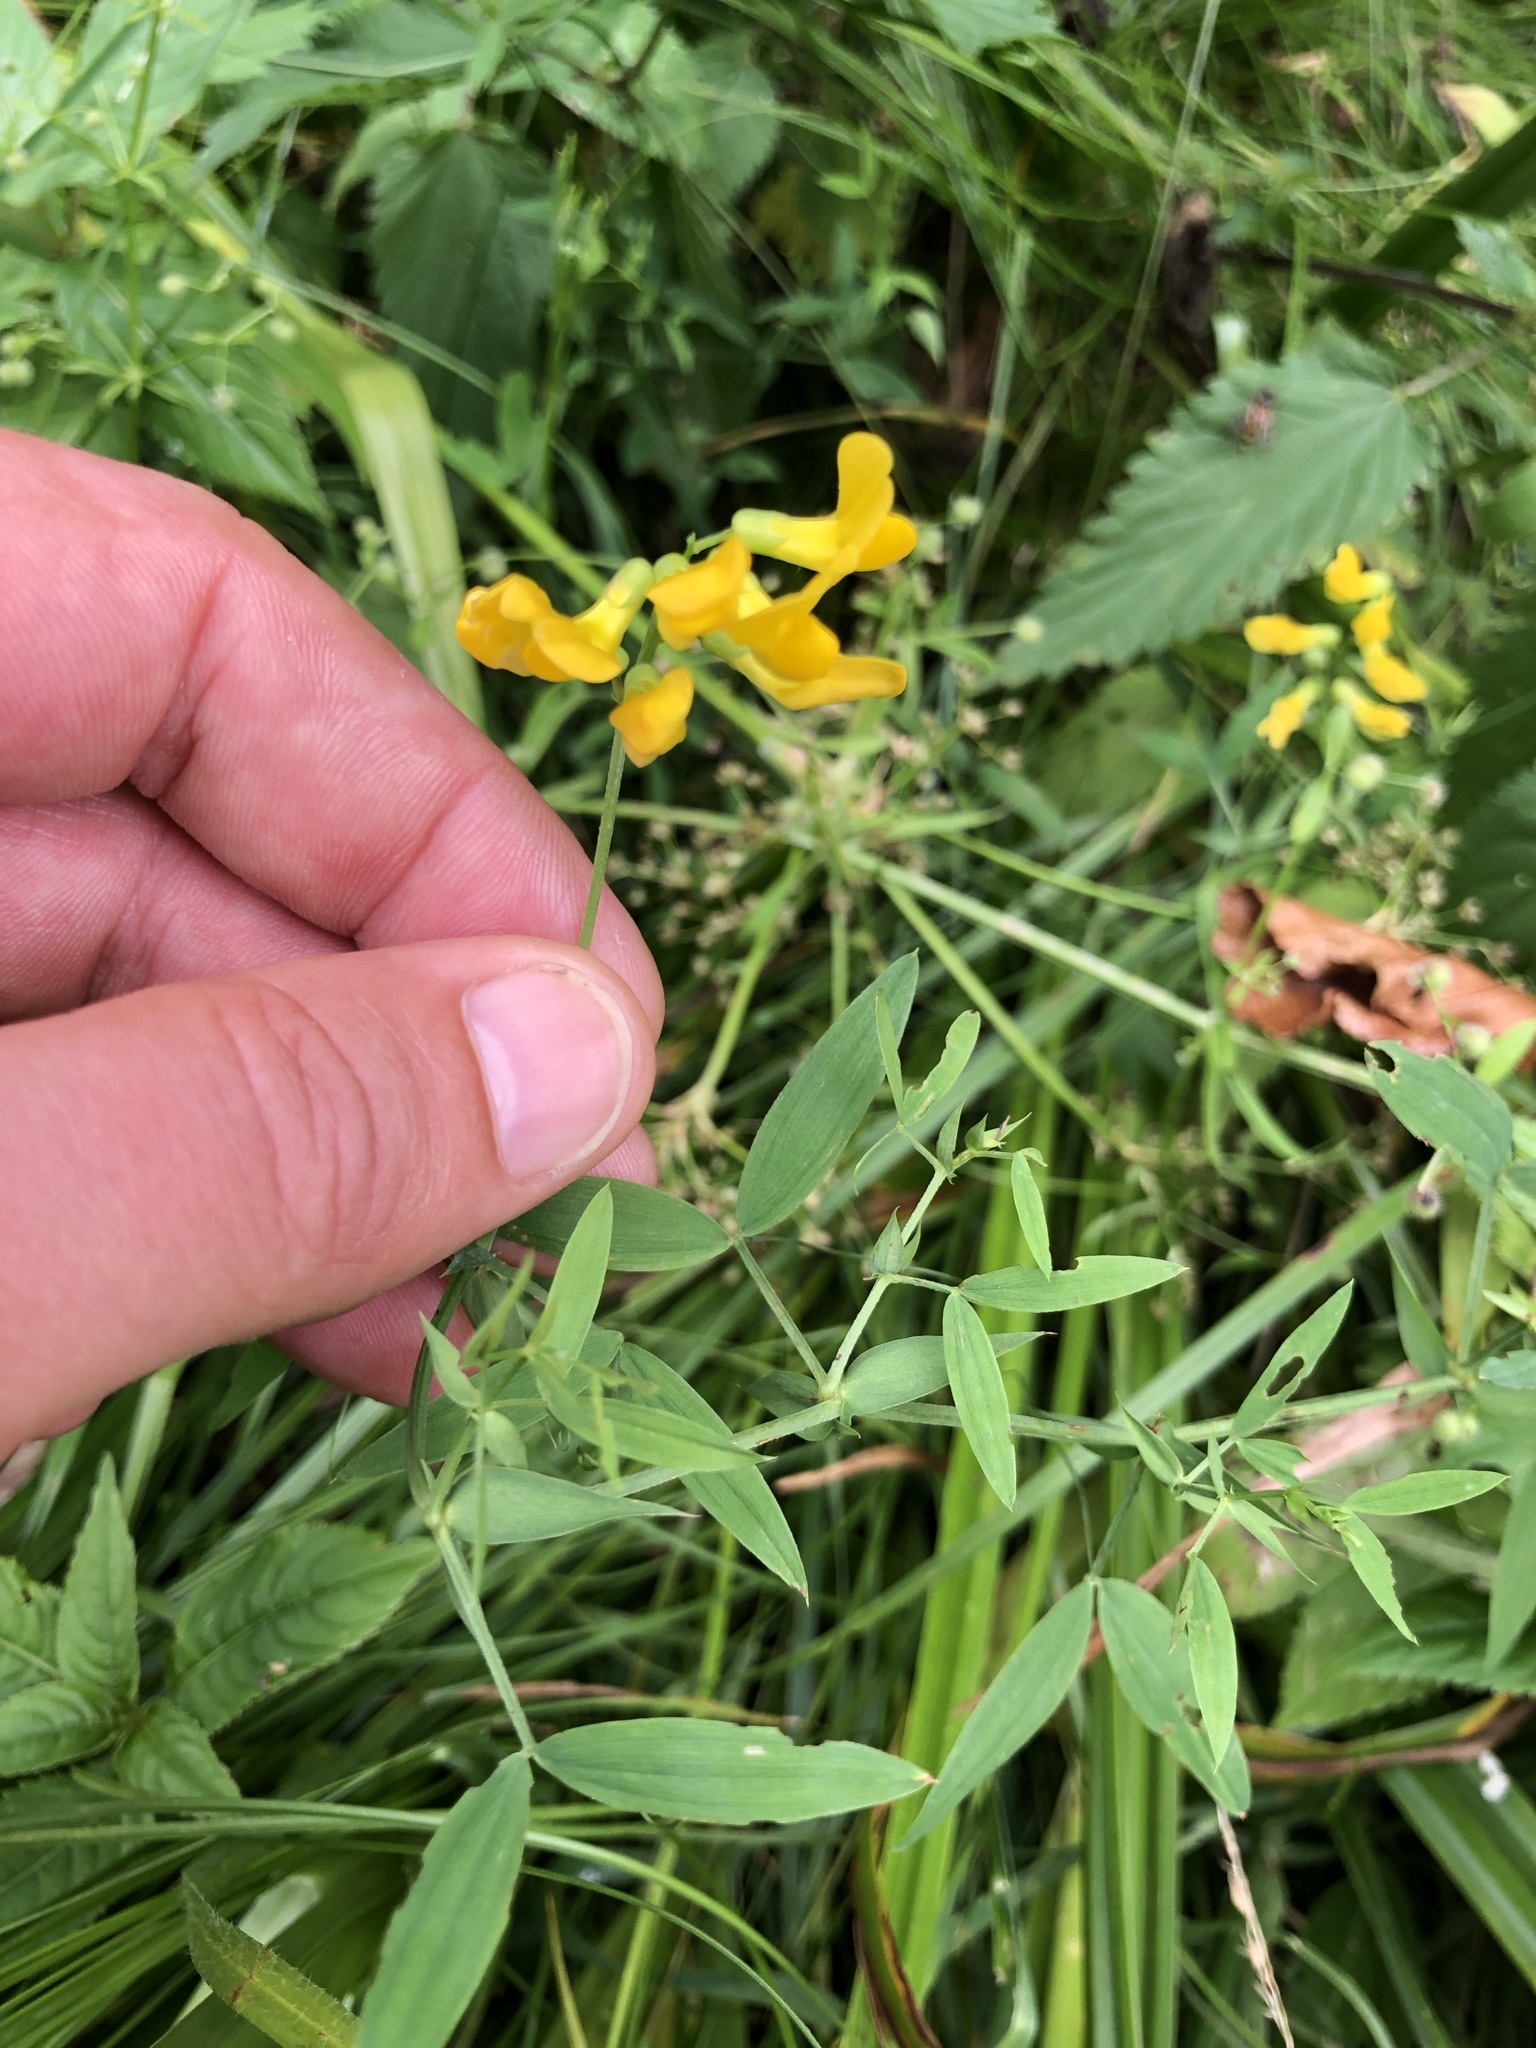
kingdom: Plantae
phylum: Tracheophyta
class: Magnoliopsida
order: Fabales
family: Fabaceae
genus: Lathyrus
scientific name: Lathyrus pratensis
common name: Meadow vetchling
